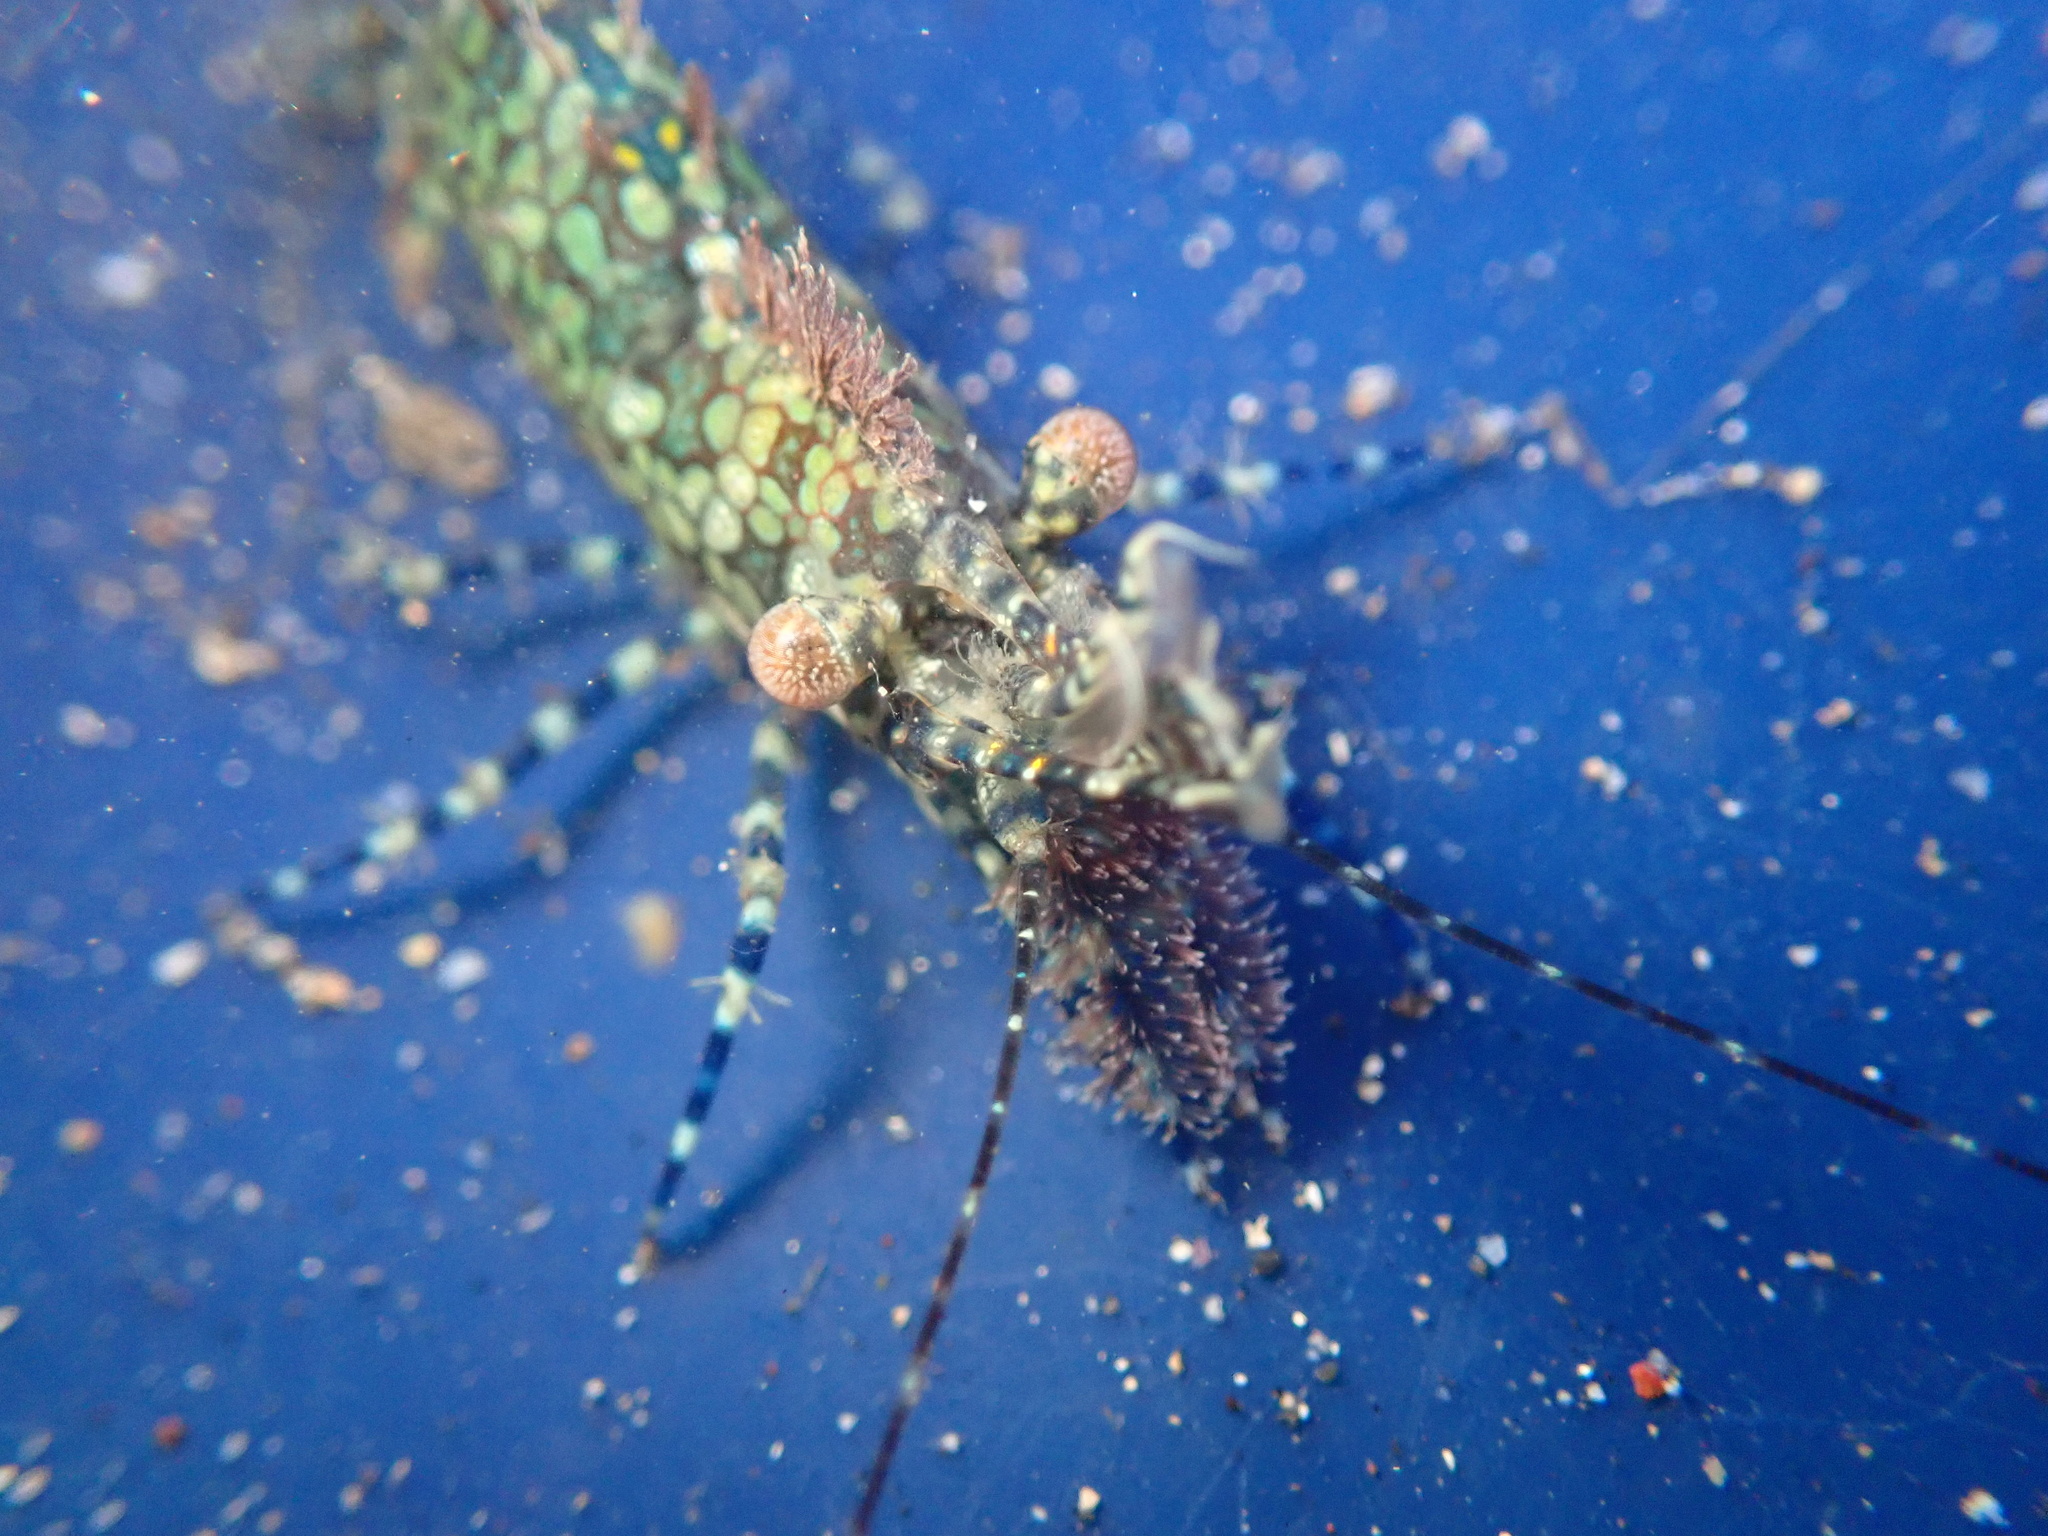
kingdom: Animalia
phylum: Arthropoda
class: Malacostraca
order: Decapoda
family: Hippolytidae
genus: Saron
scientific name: Saron marmoratus
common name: Common marble shrimp
